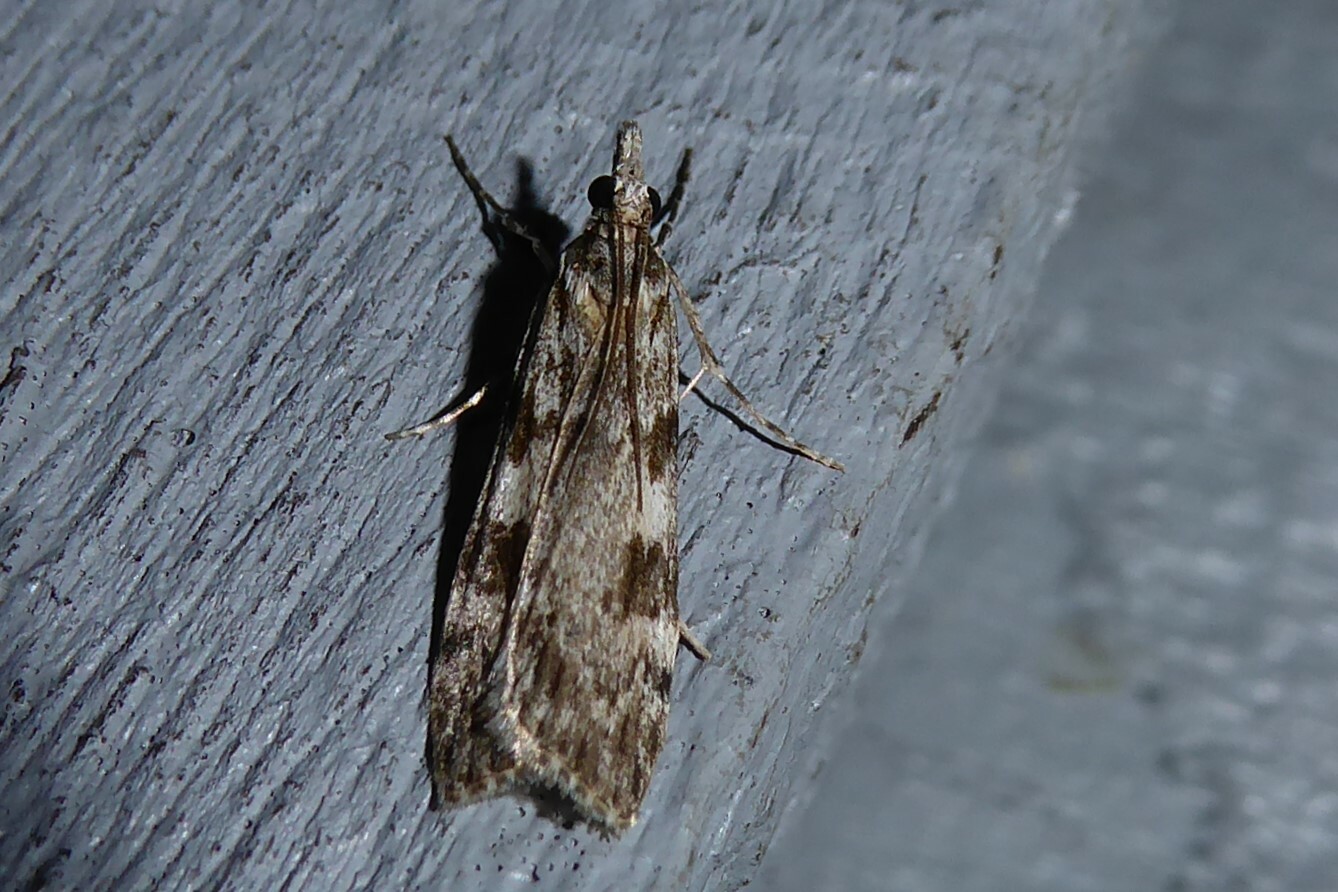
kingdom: Animalia
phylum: Arthropoda
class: Insecta
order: Lepidoptera
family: Crambidae
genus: Scoparia
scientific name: Scoparia halopis
